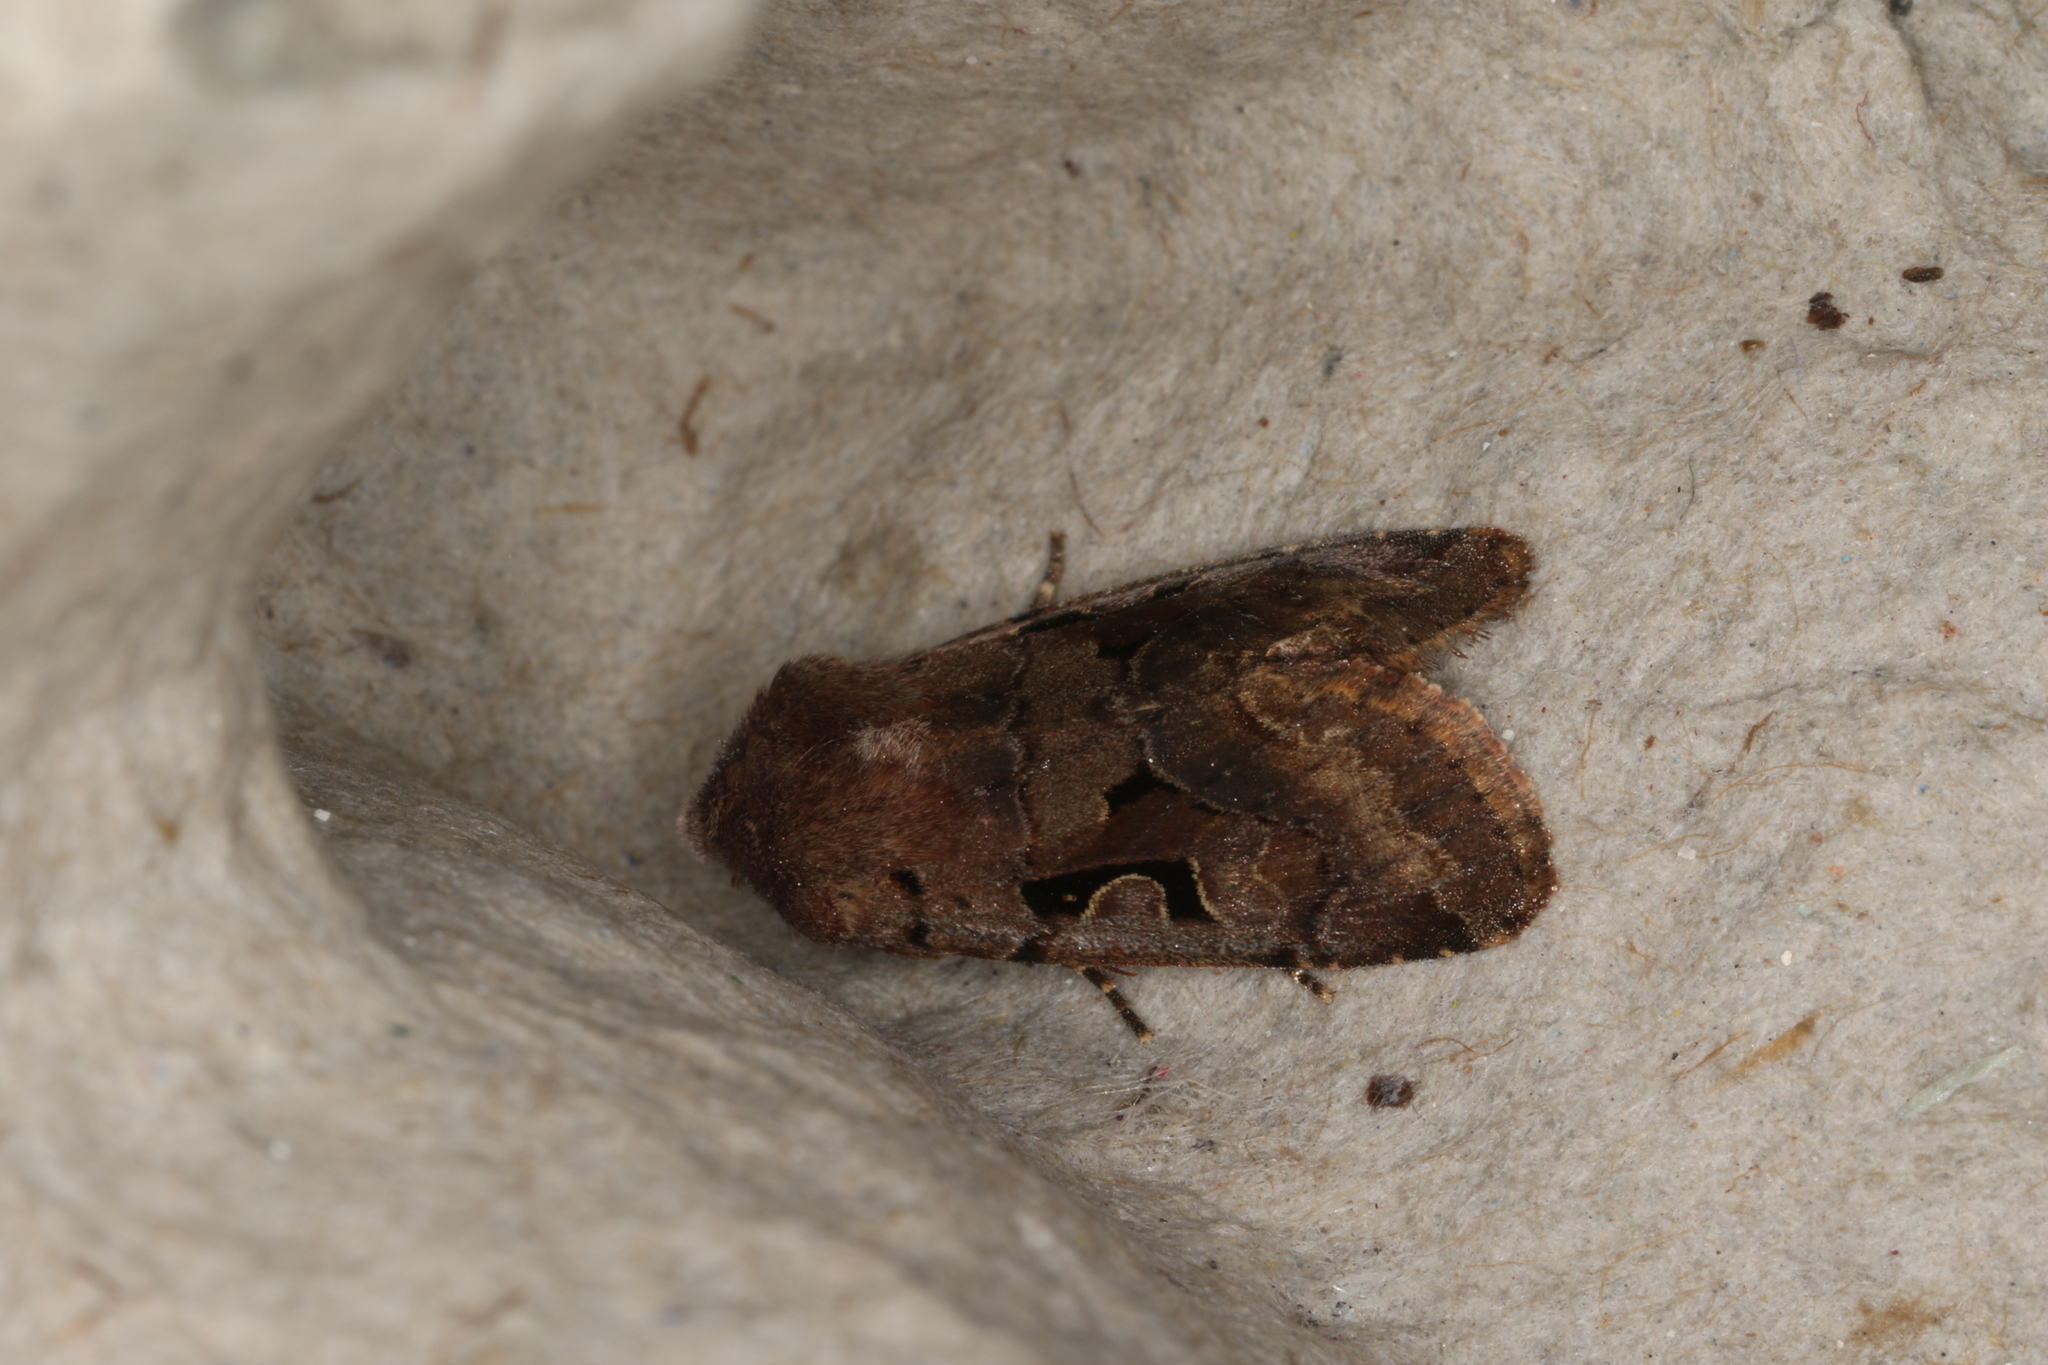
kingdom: Animalia
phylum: Arthropoda
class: Insecta
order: Lepidoptera
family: Noctuidae
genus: Orthosia
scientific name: Orthosia gothica
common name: Hebrew character
